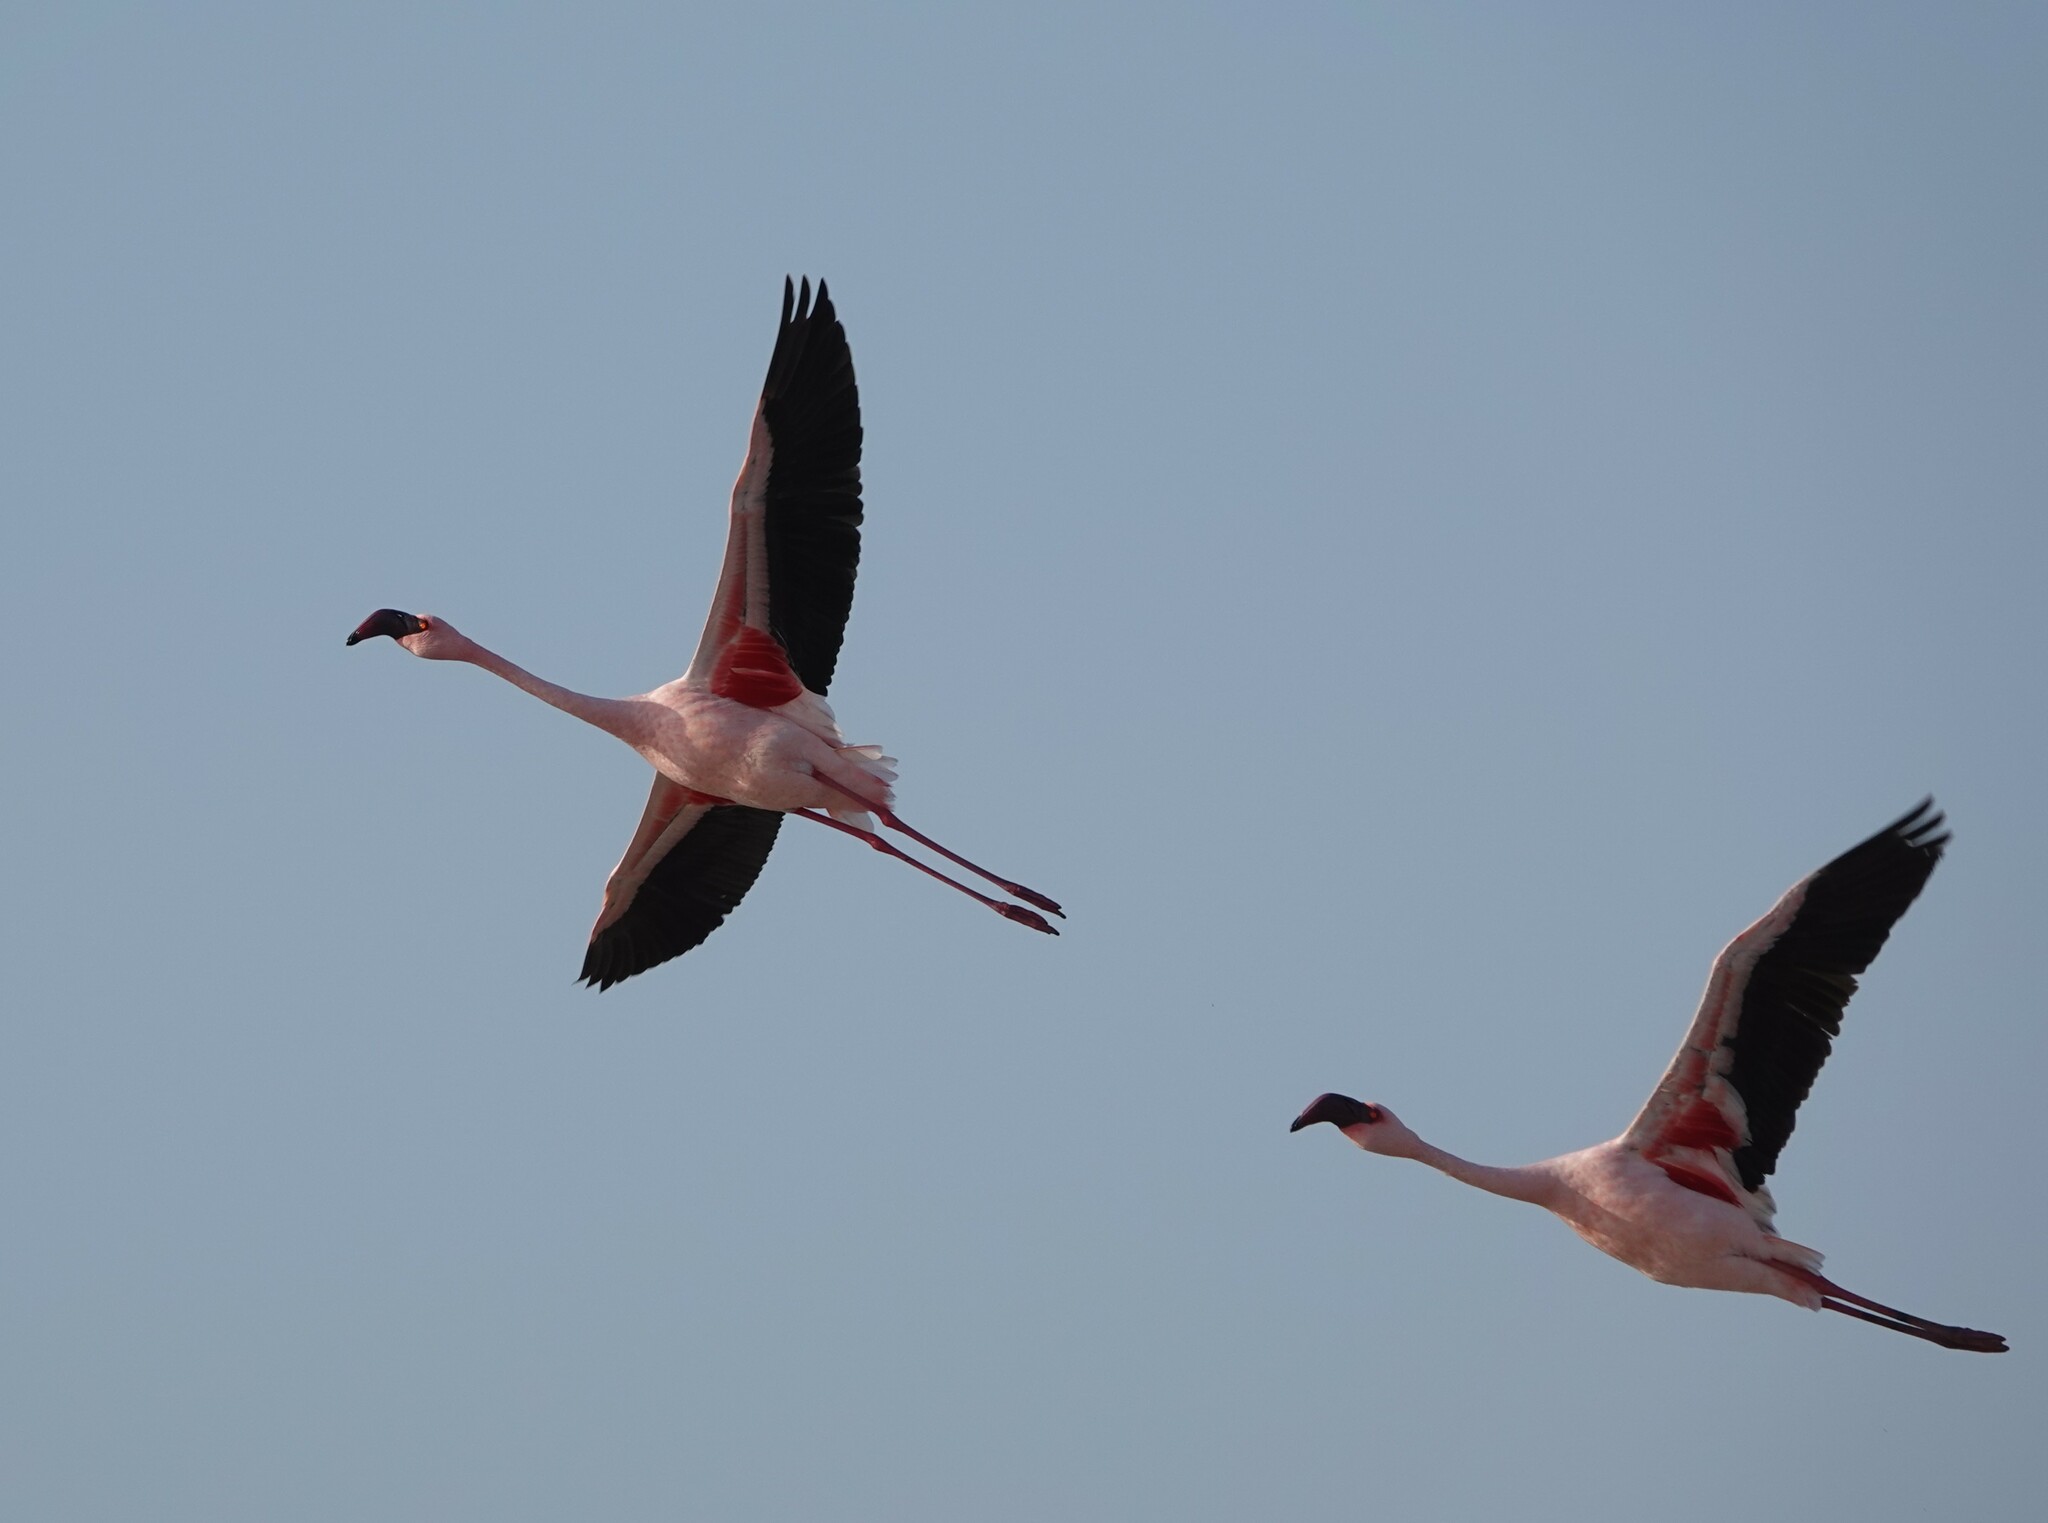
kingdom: Animalia
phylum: Chordata
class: Aves
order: Phoenicopteriformes
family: Phoenicopteridae
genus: Phoeniconaias
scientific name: Phoeniconaias minor
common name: Lesser flamingo
